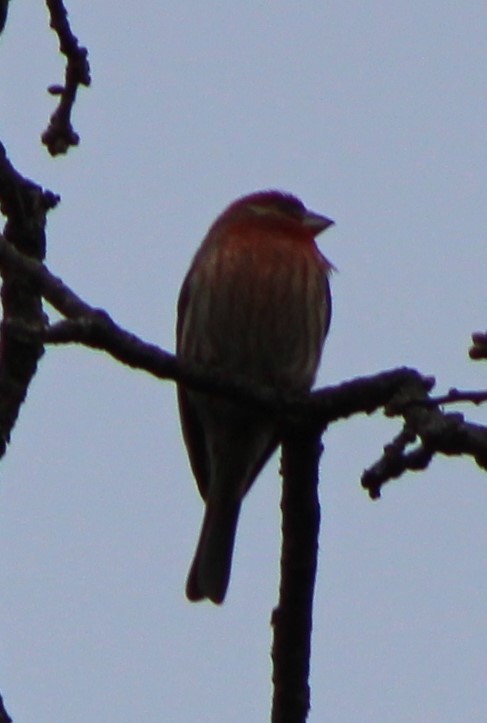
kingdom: Animalia
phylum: Chordata
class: Aves
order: Passeriformes
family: Fringillidae
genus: Haemorhous
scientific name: Haemorhous mexicanus
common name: House finch
